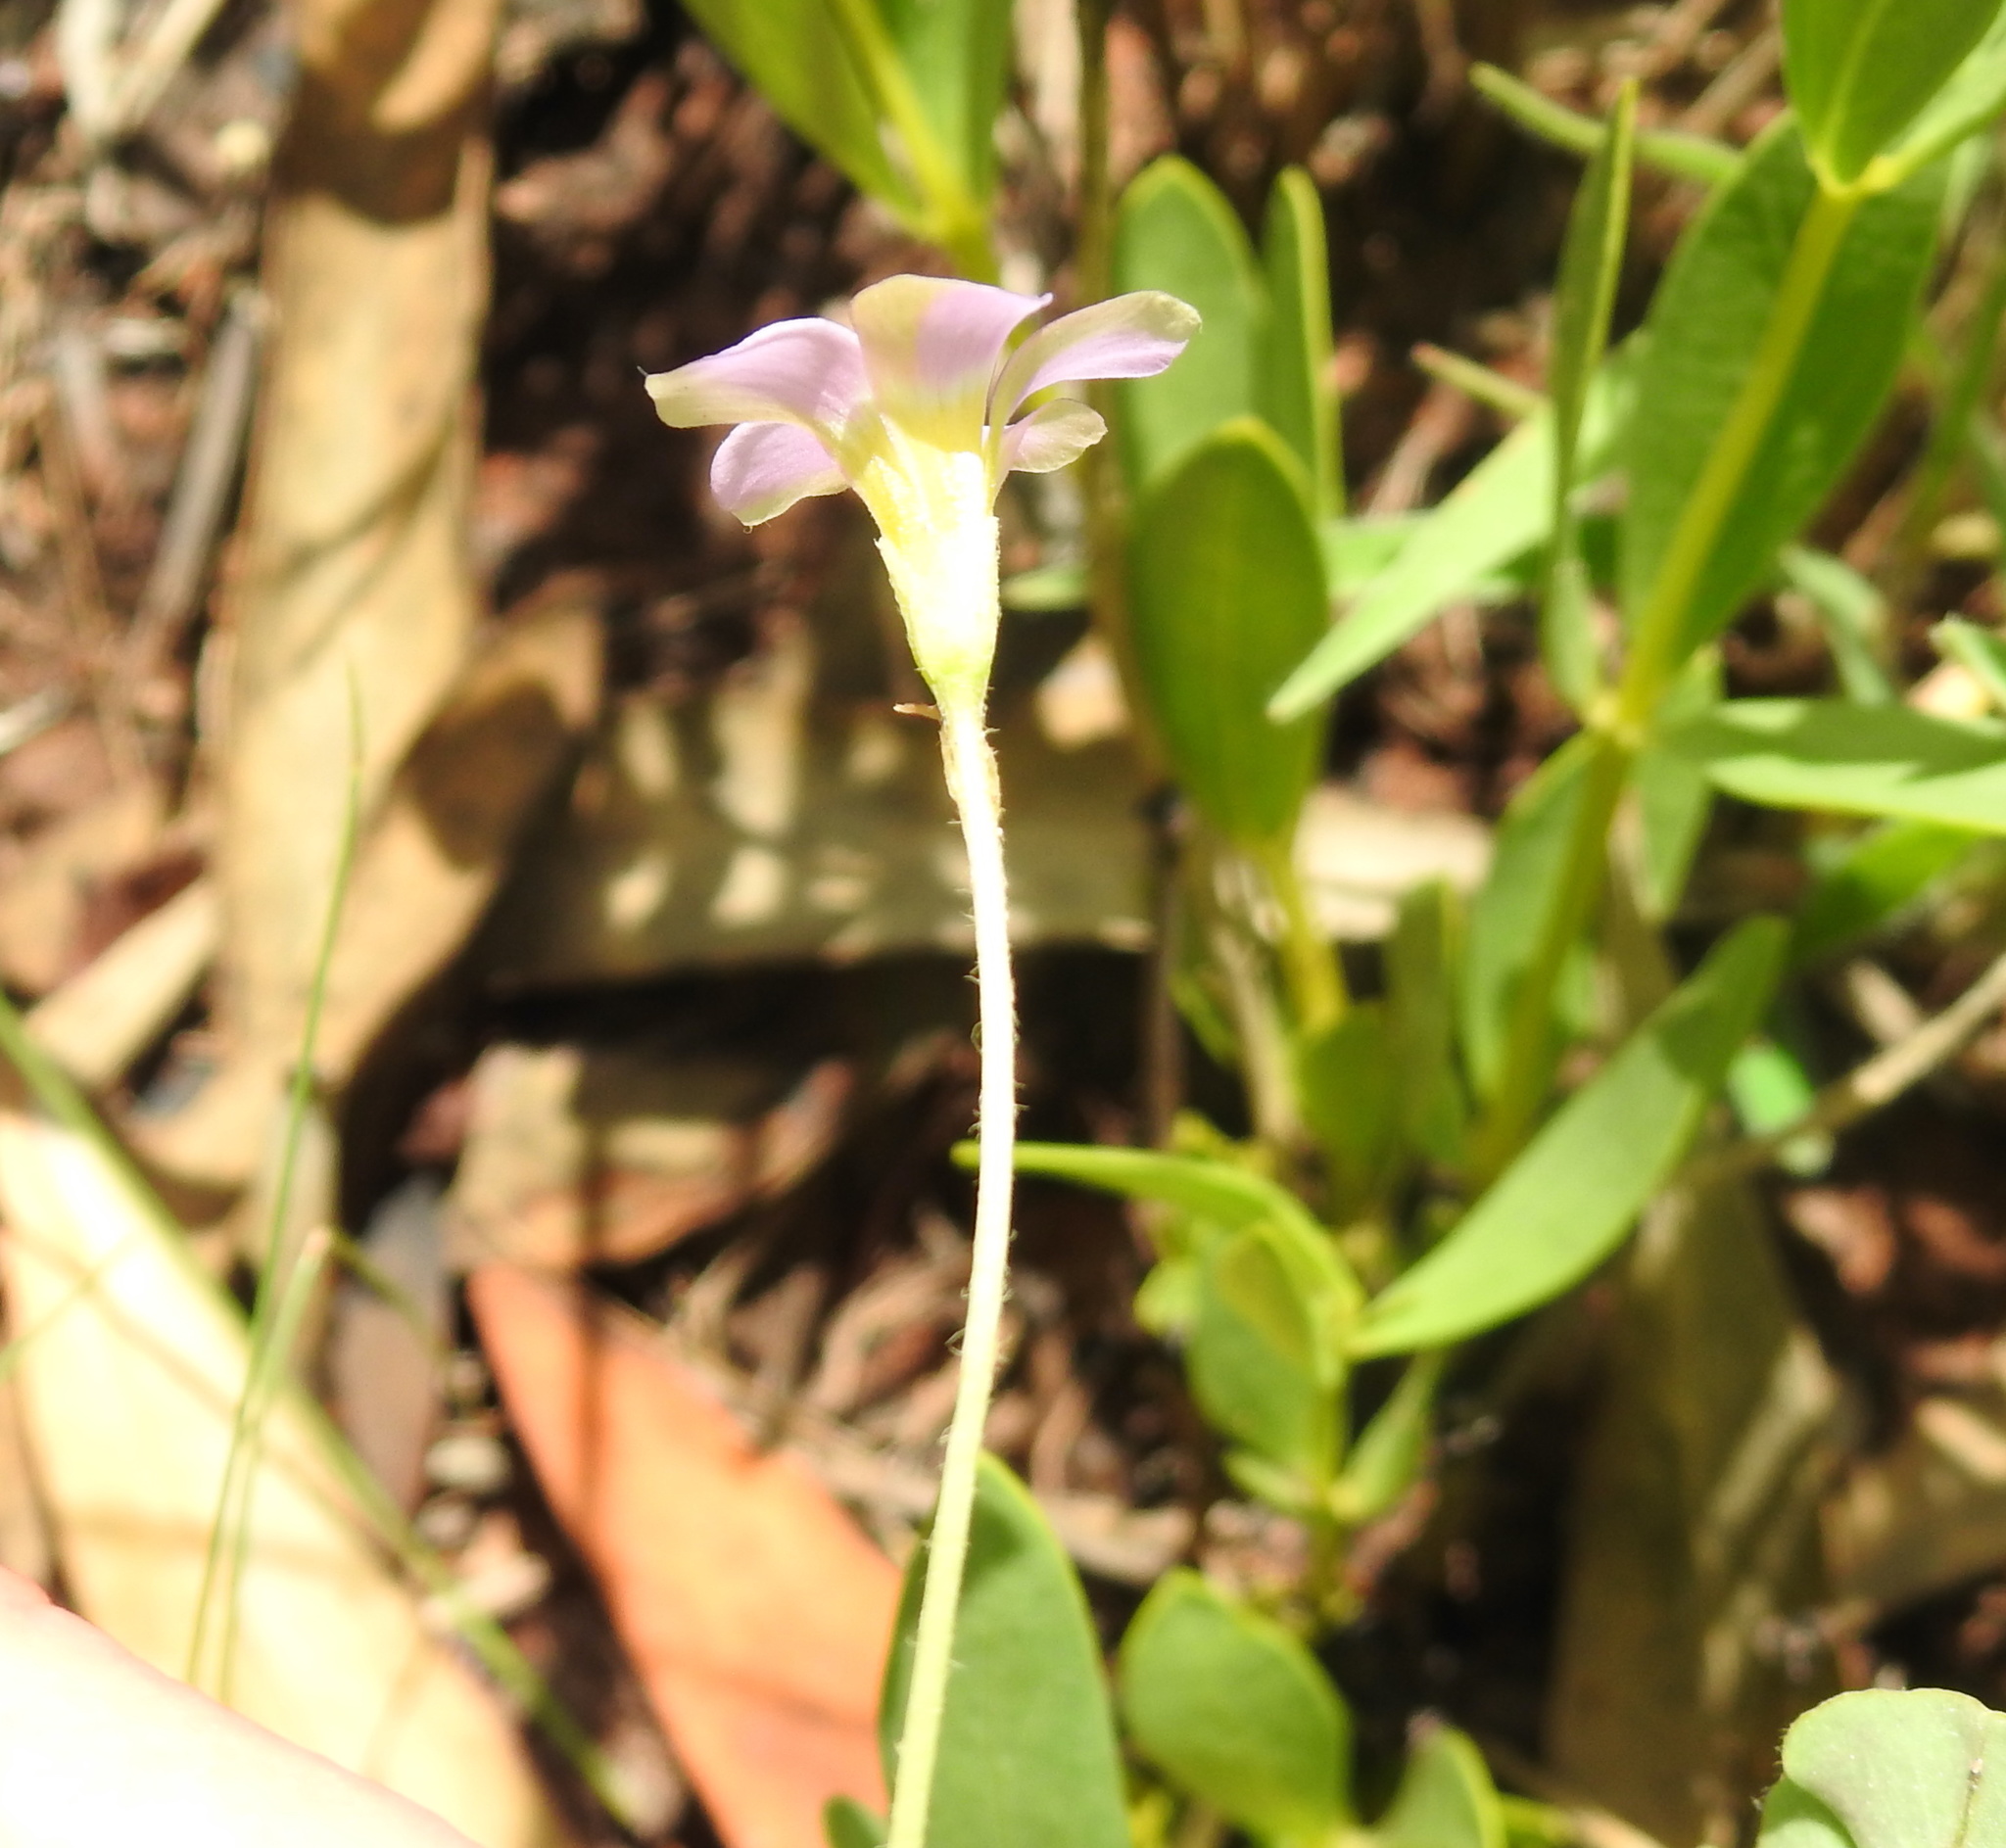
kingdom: Plantae
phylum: Tracheophyta
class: Magnoliopsida
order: Oxalidales
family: Oxalidaceae
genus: Oxalis
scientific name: Oxalis obliquifolia
